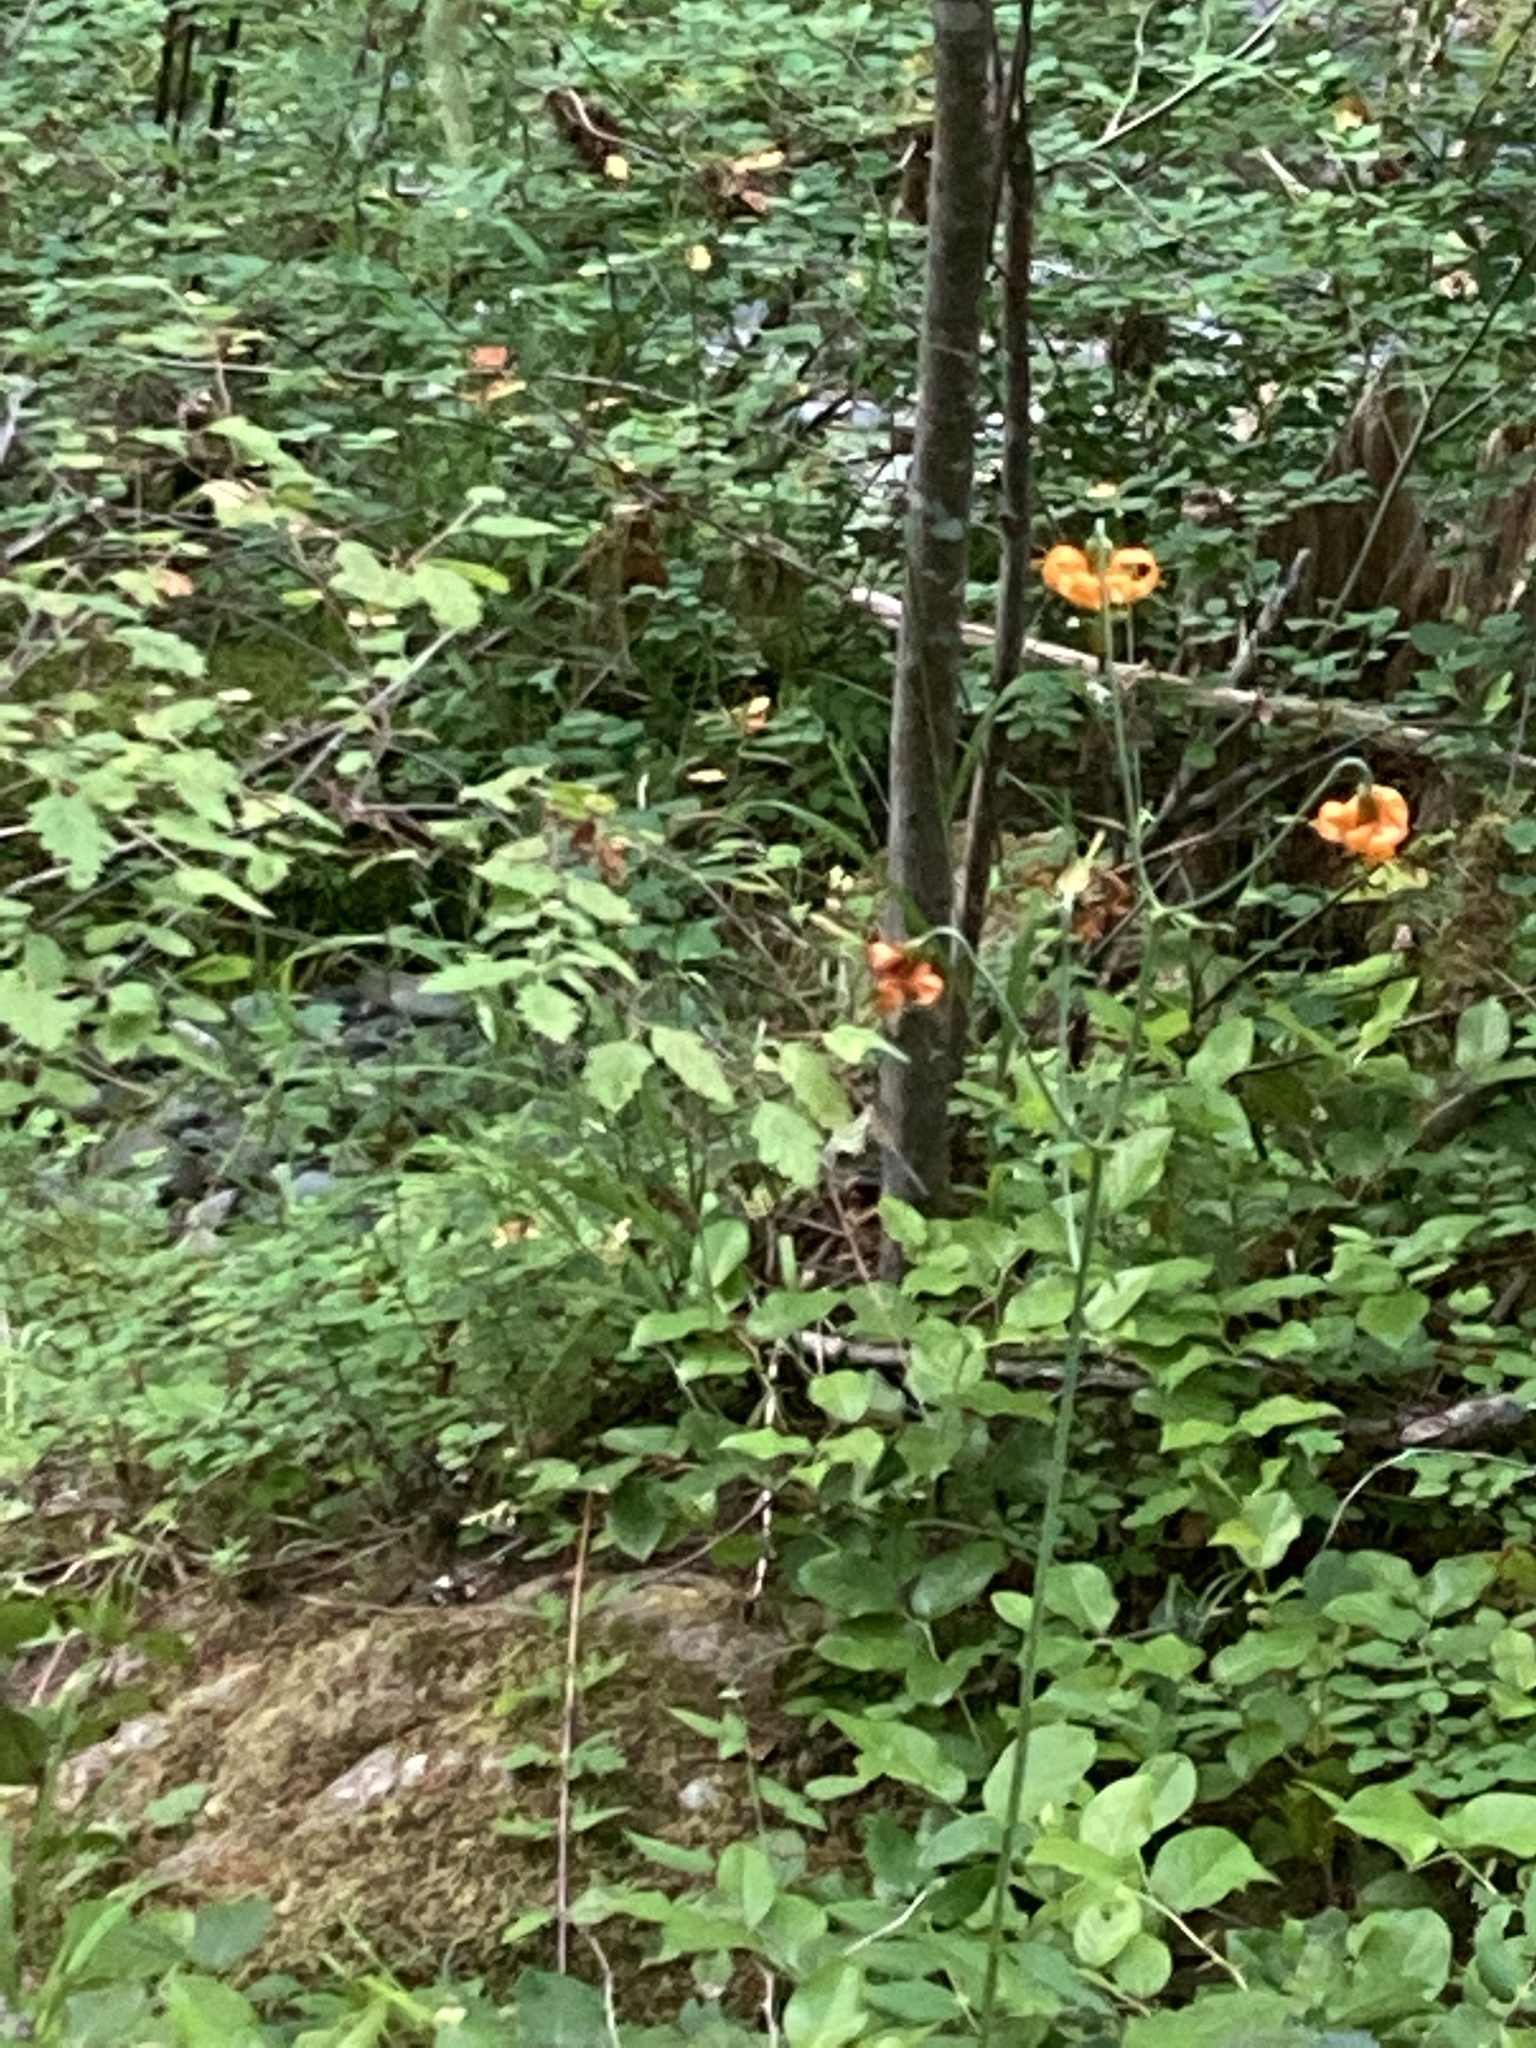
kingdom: Plantae
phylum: Tracheophyta
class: Liliopsida
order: Liliales
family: Liliaceae
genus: Lilium
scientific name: Lilium columbianum
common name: Columbia lily
